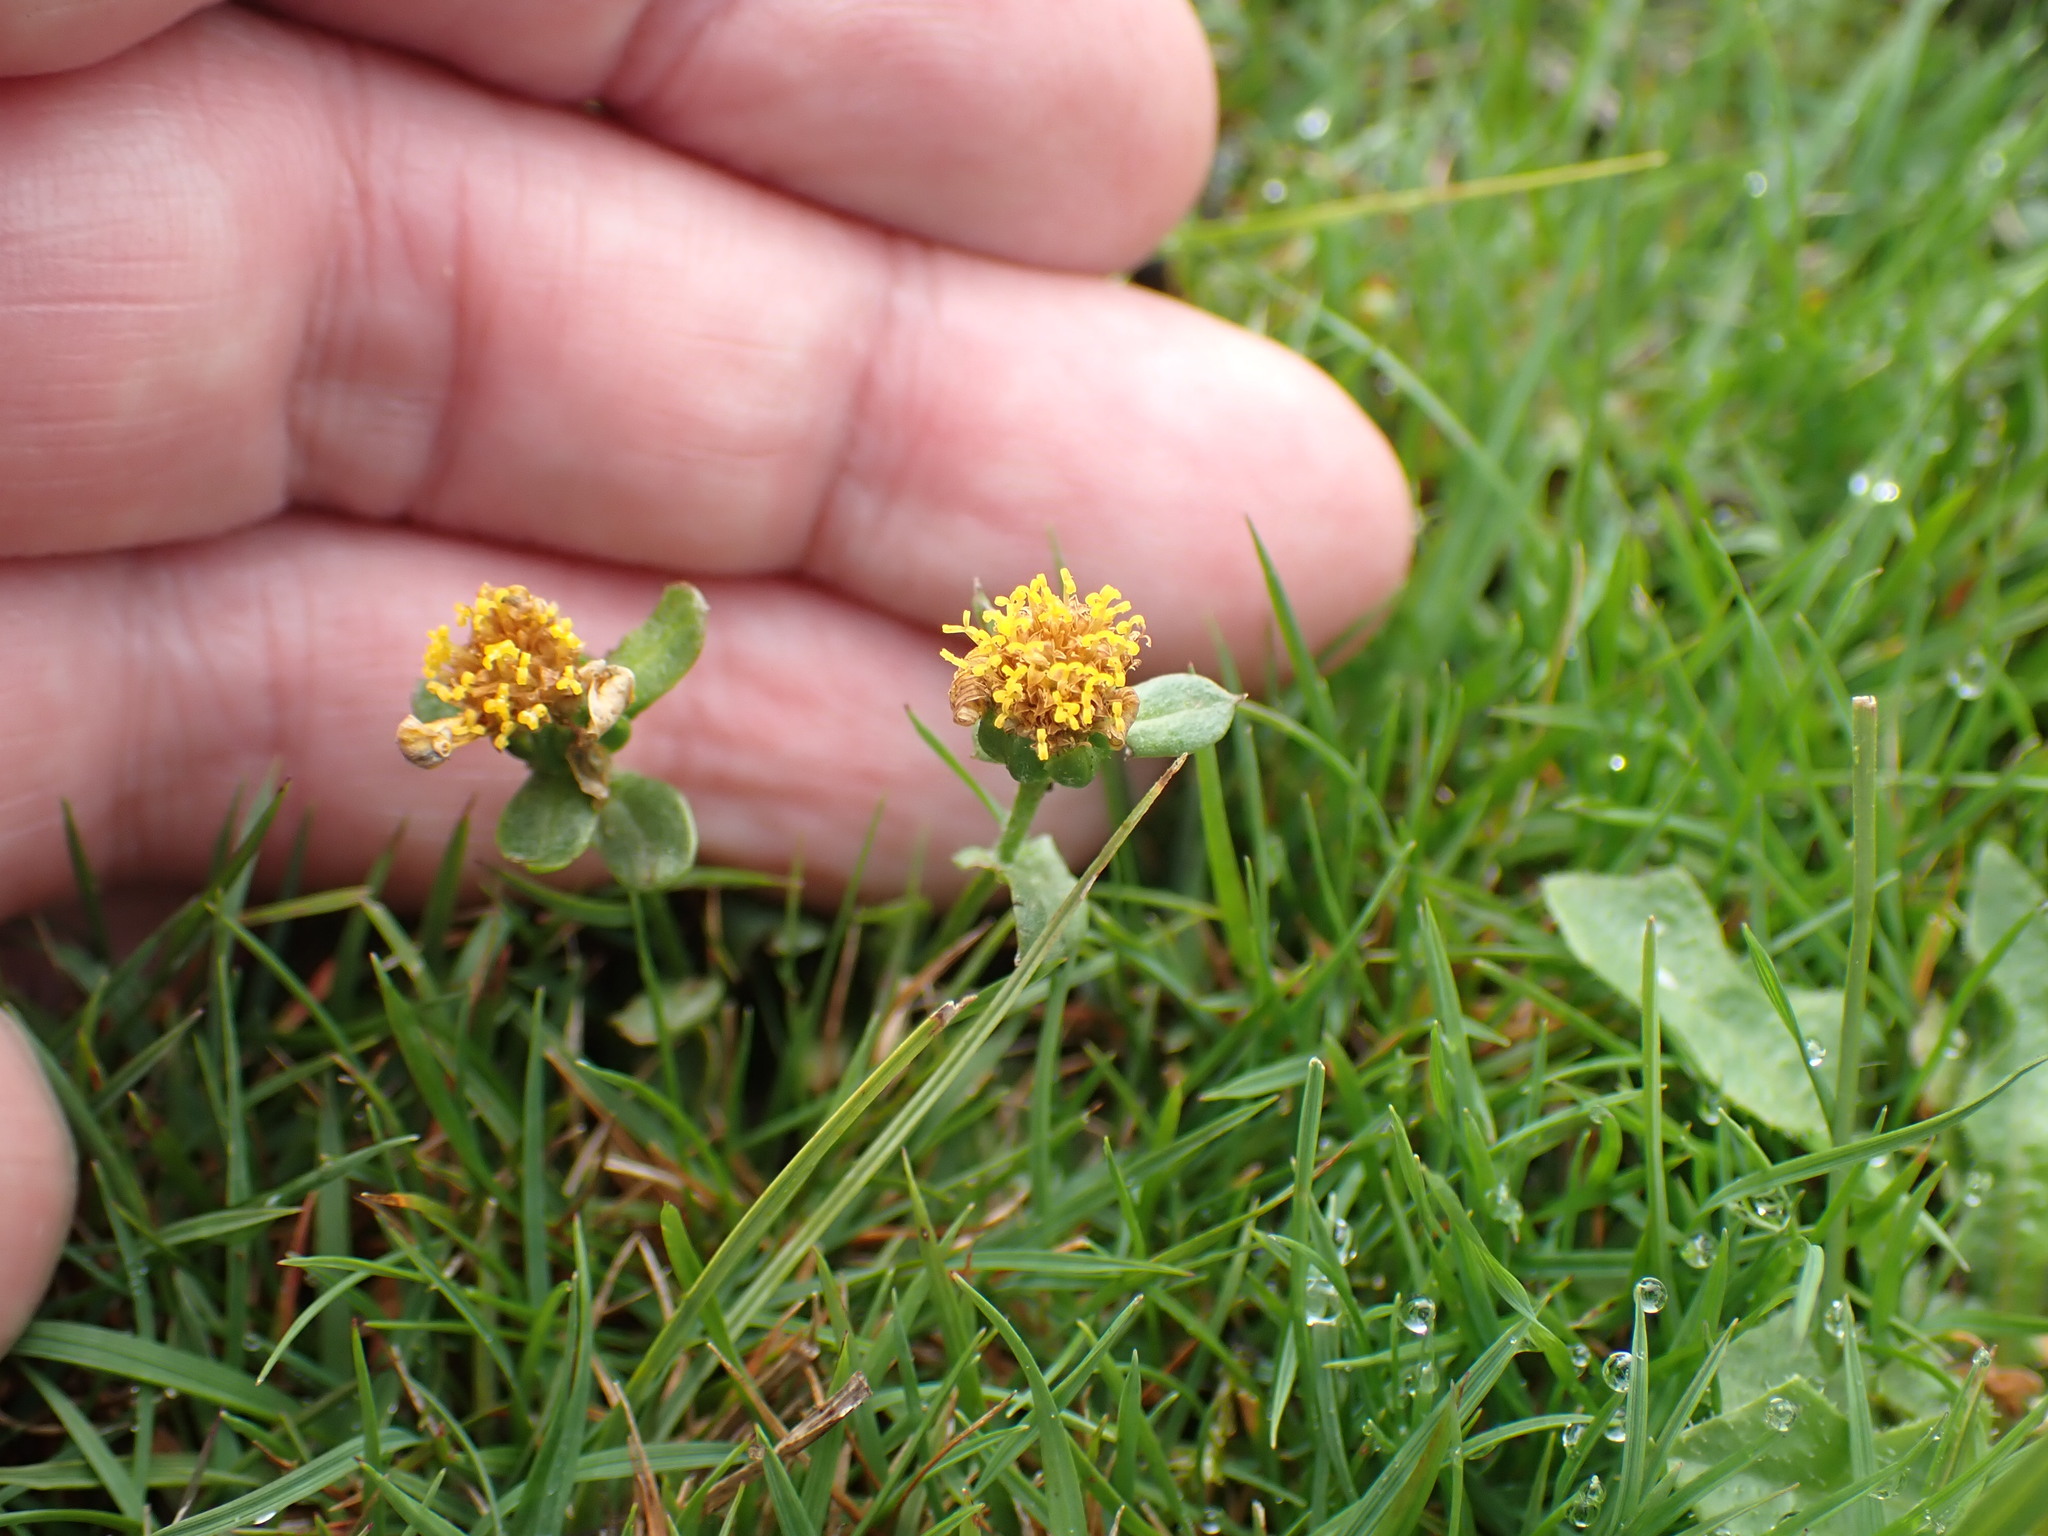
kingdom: Plantae
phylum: Tracheophyta
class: Magnoliopsida
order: Asterales
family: Asteraceae
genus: Pulicaria
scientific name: Pulicaria vulgaris
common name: Small fleabane
